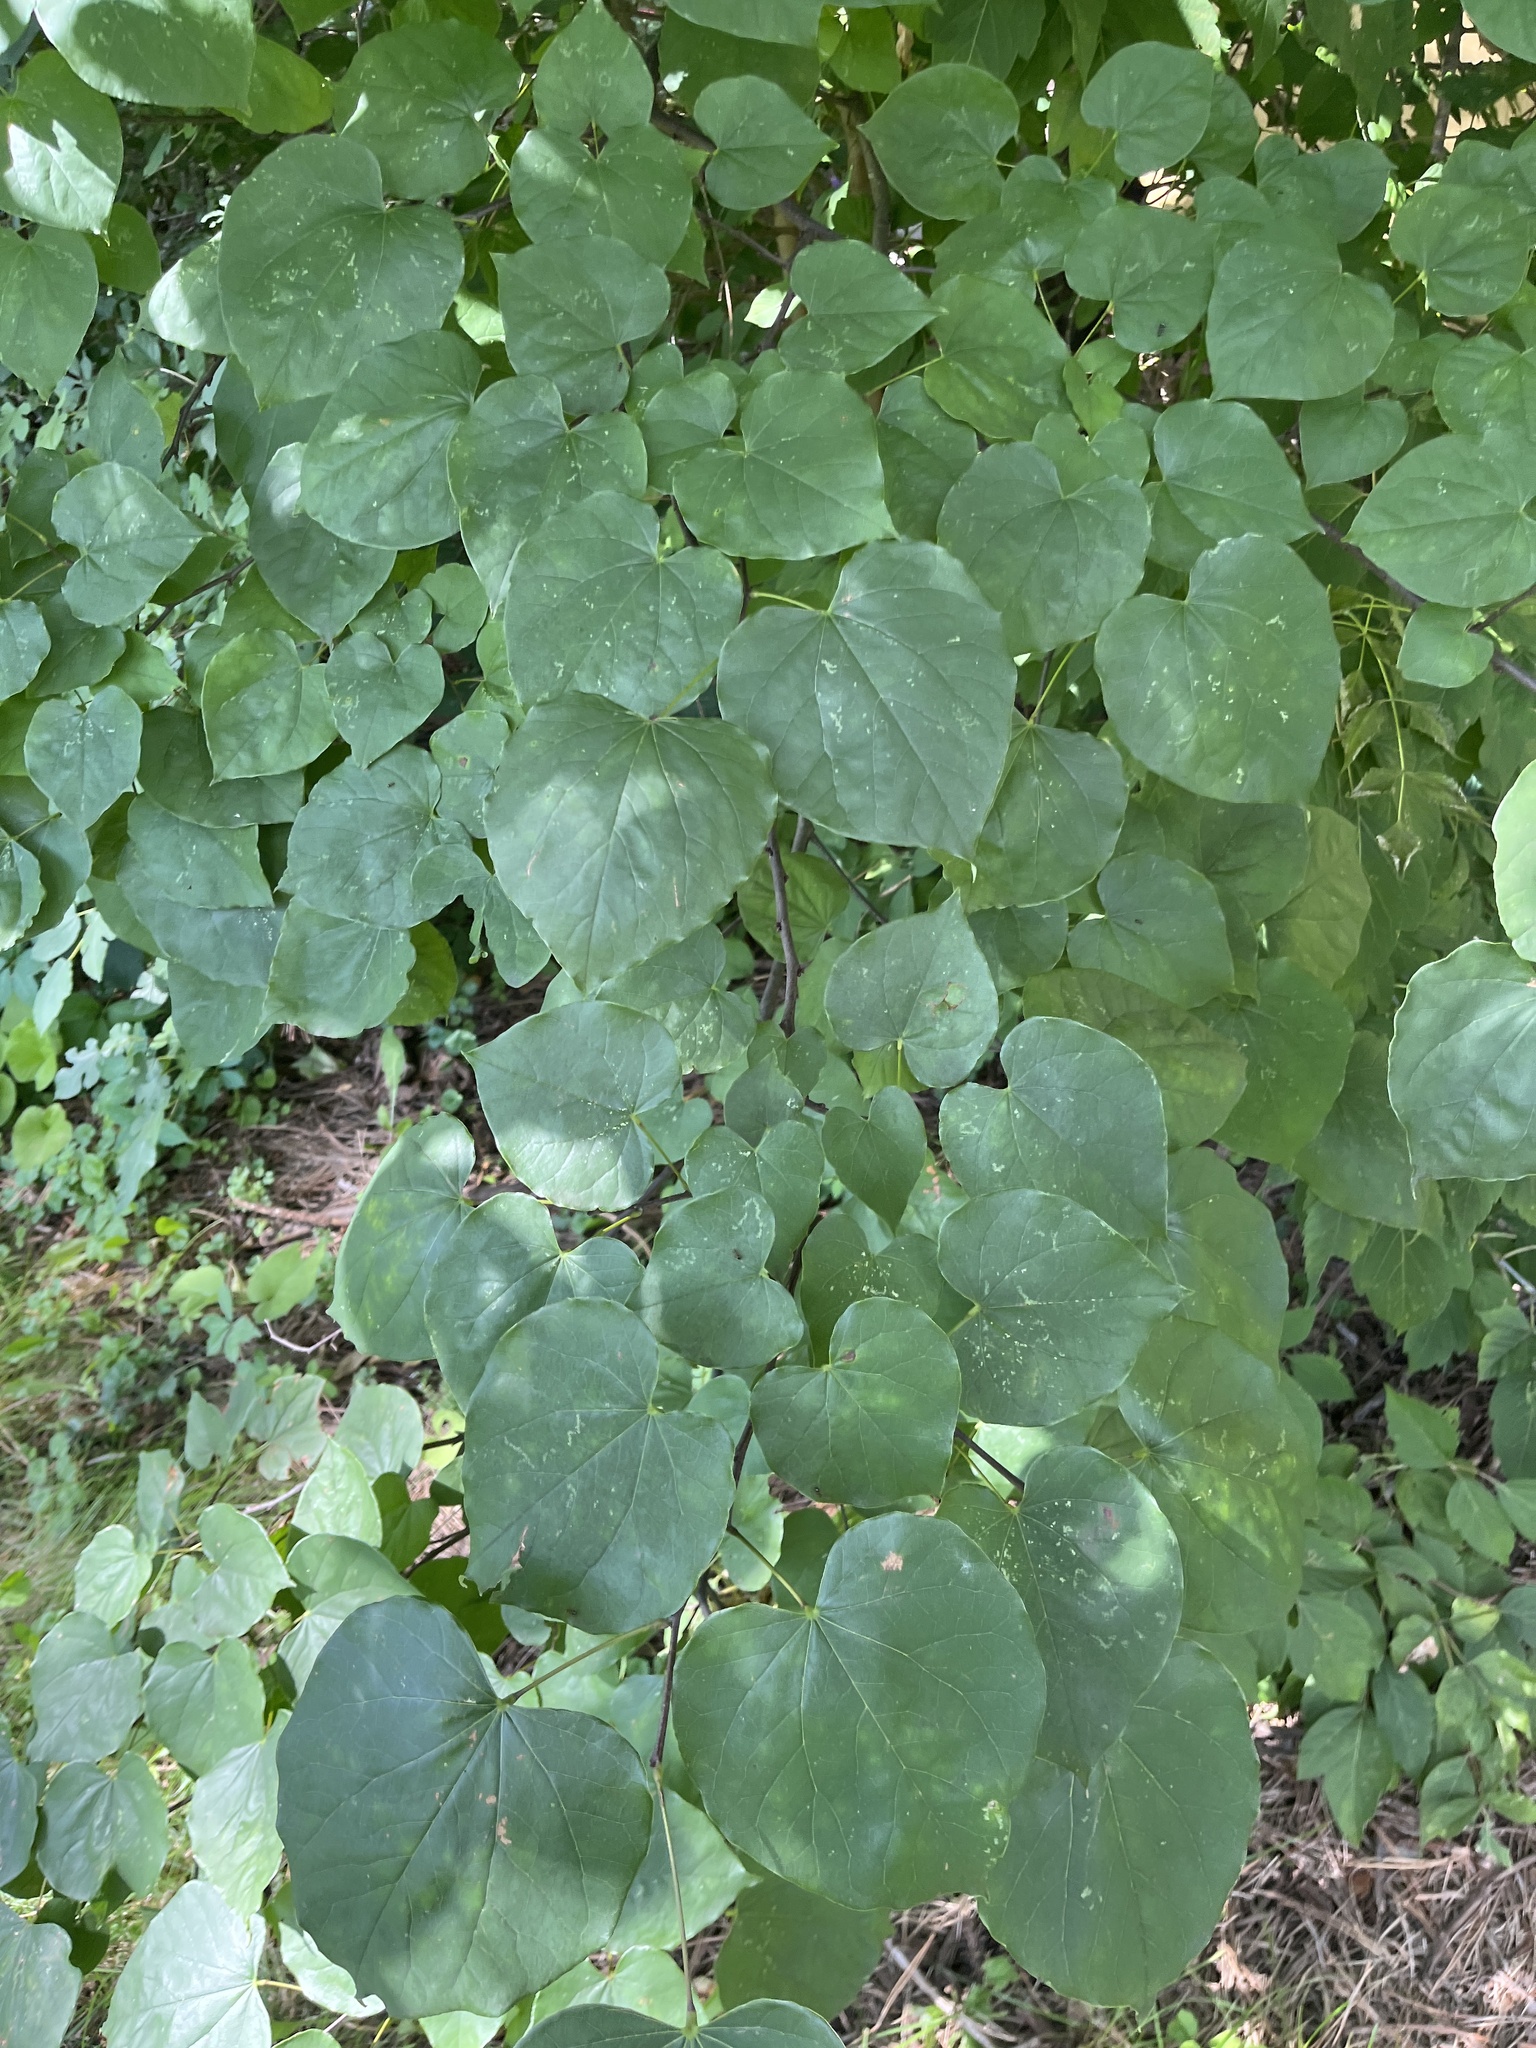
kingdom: Plantae
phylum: Tracheophyta
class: Magnoliopsida
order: Fabales
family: Fabaceae
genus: Cercis
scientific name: Cercis canadensis
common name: Eastern redbud
